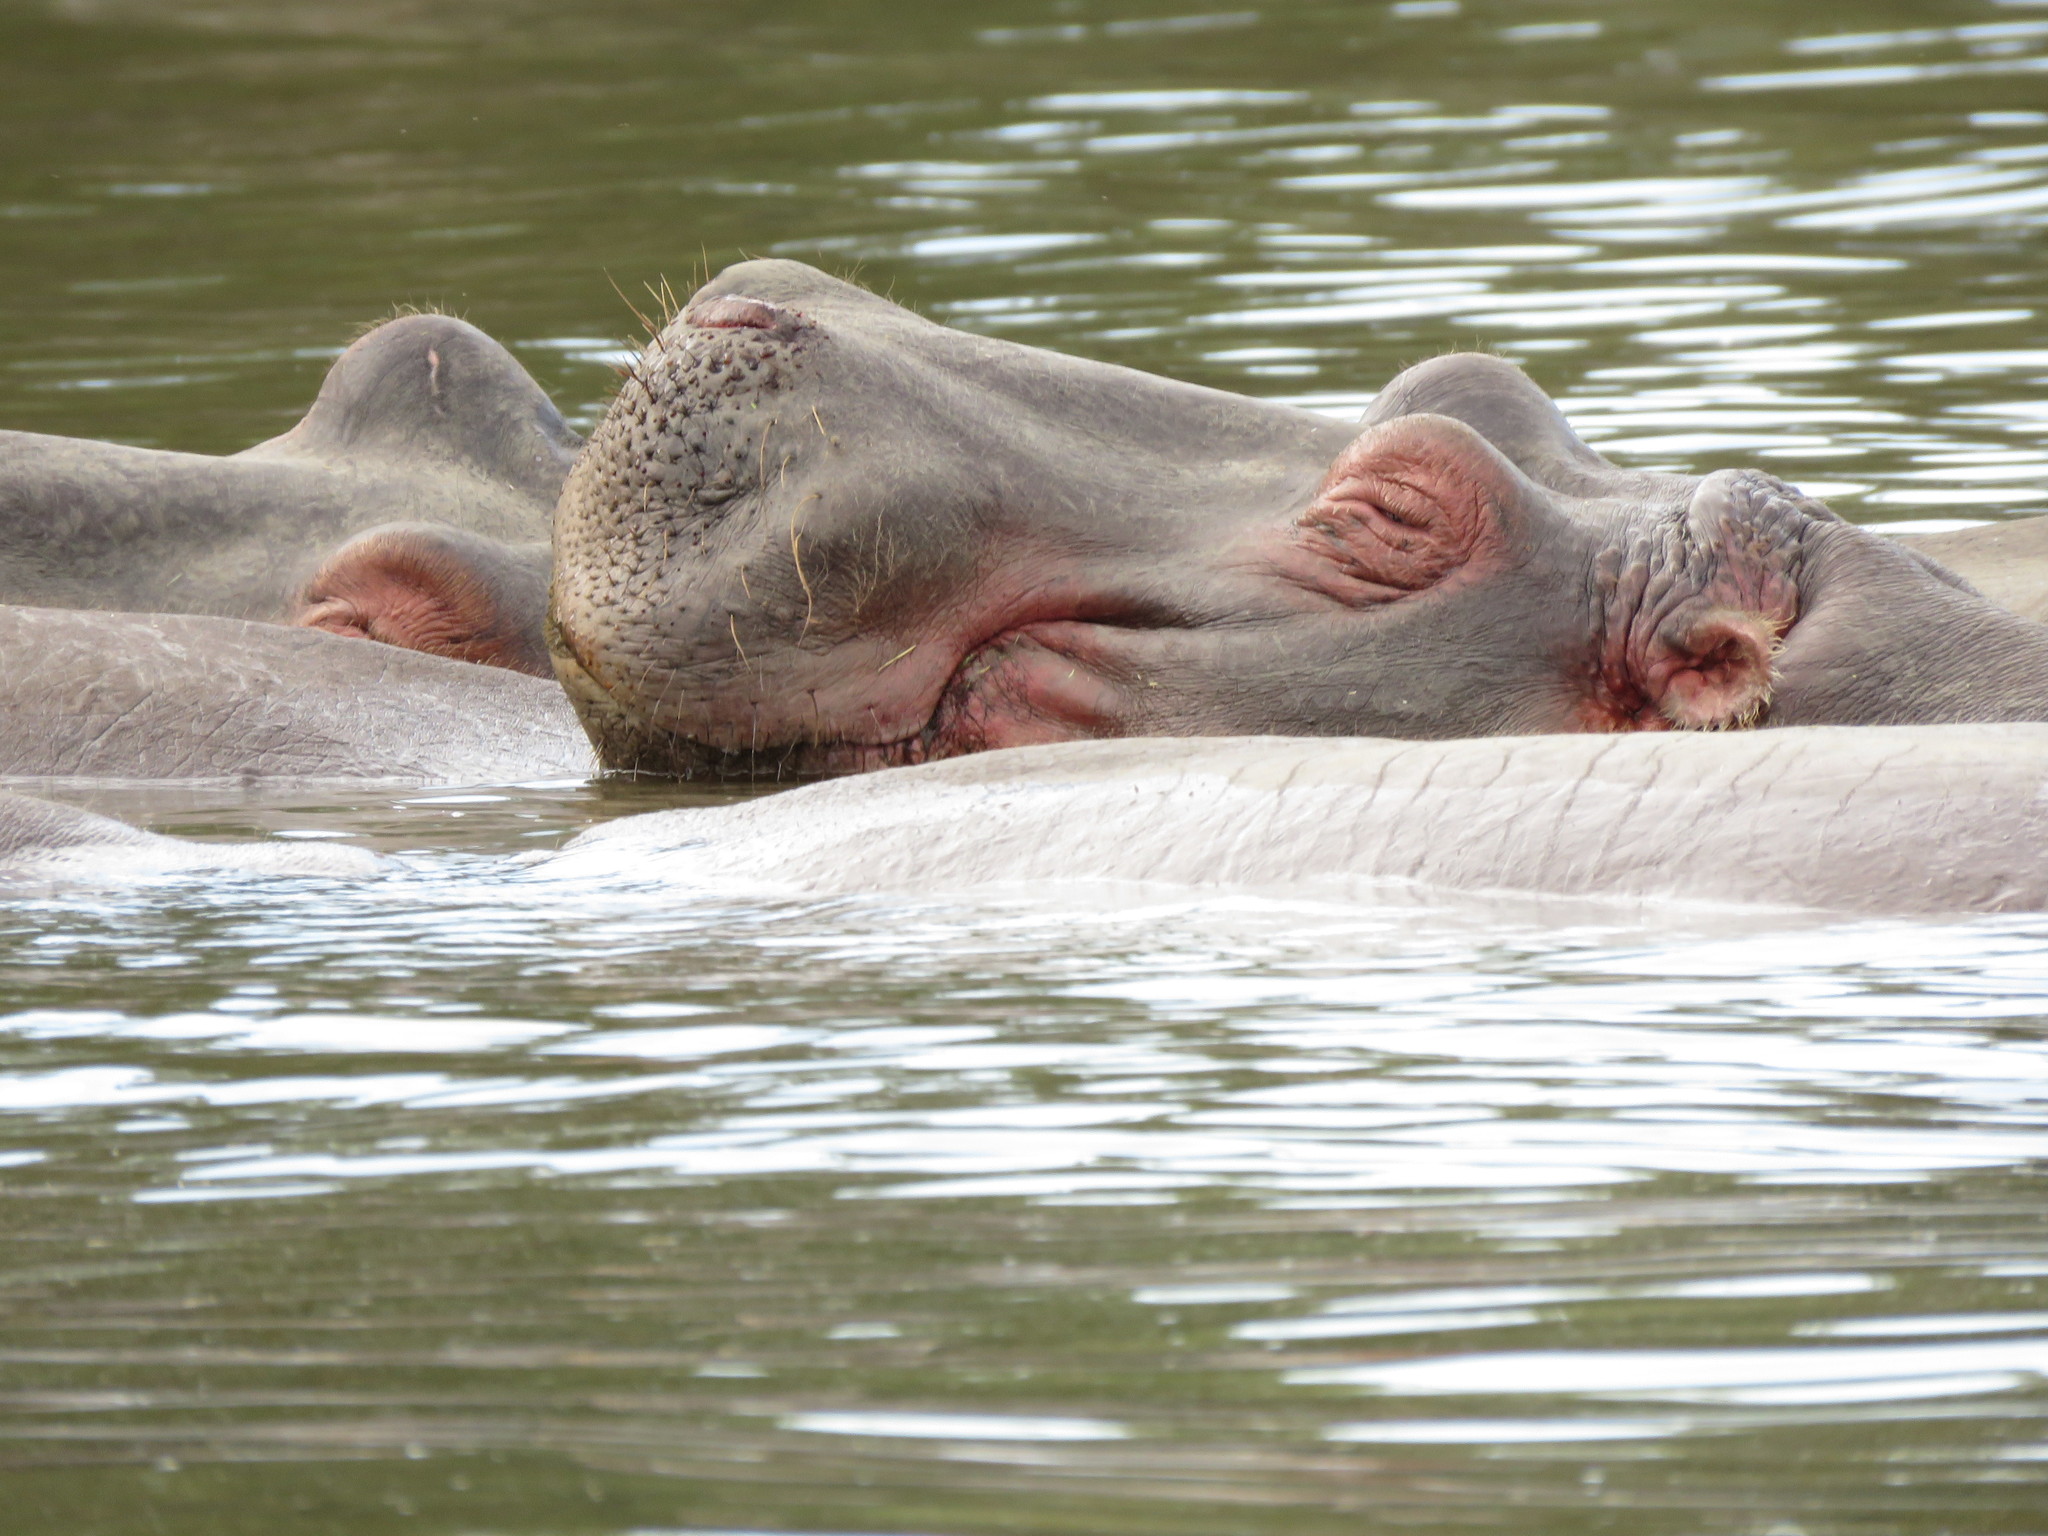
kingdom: Animalia
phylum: Chordata
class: Mammalia
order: Artiodactyla
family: Hippopotamidae
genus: Hippopotamus
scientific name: Hippopotamus amphibius
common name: Common hippopotamus
